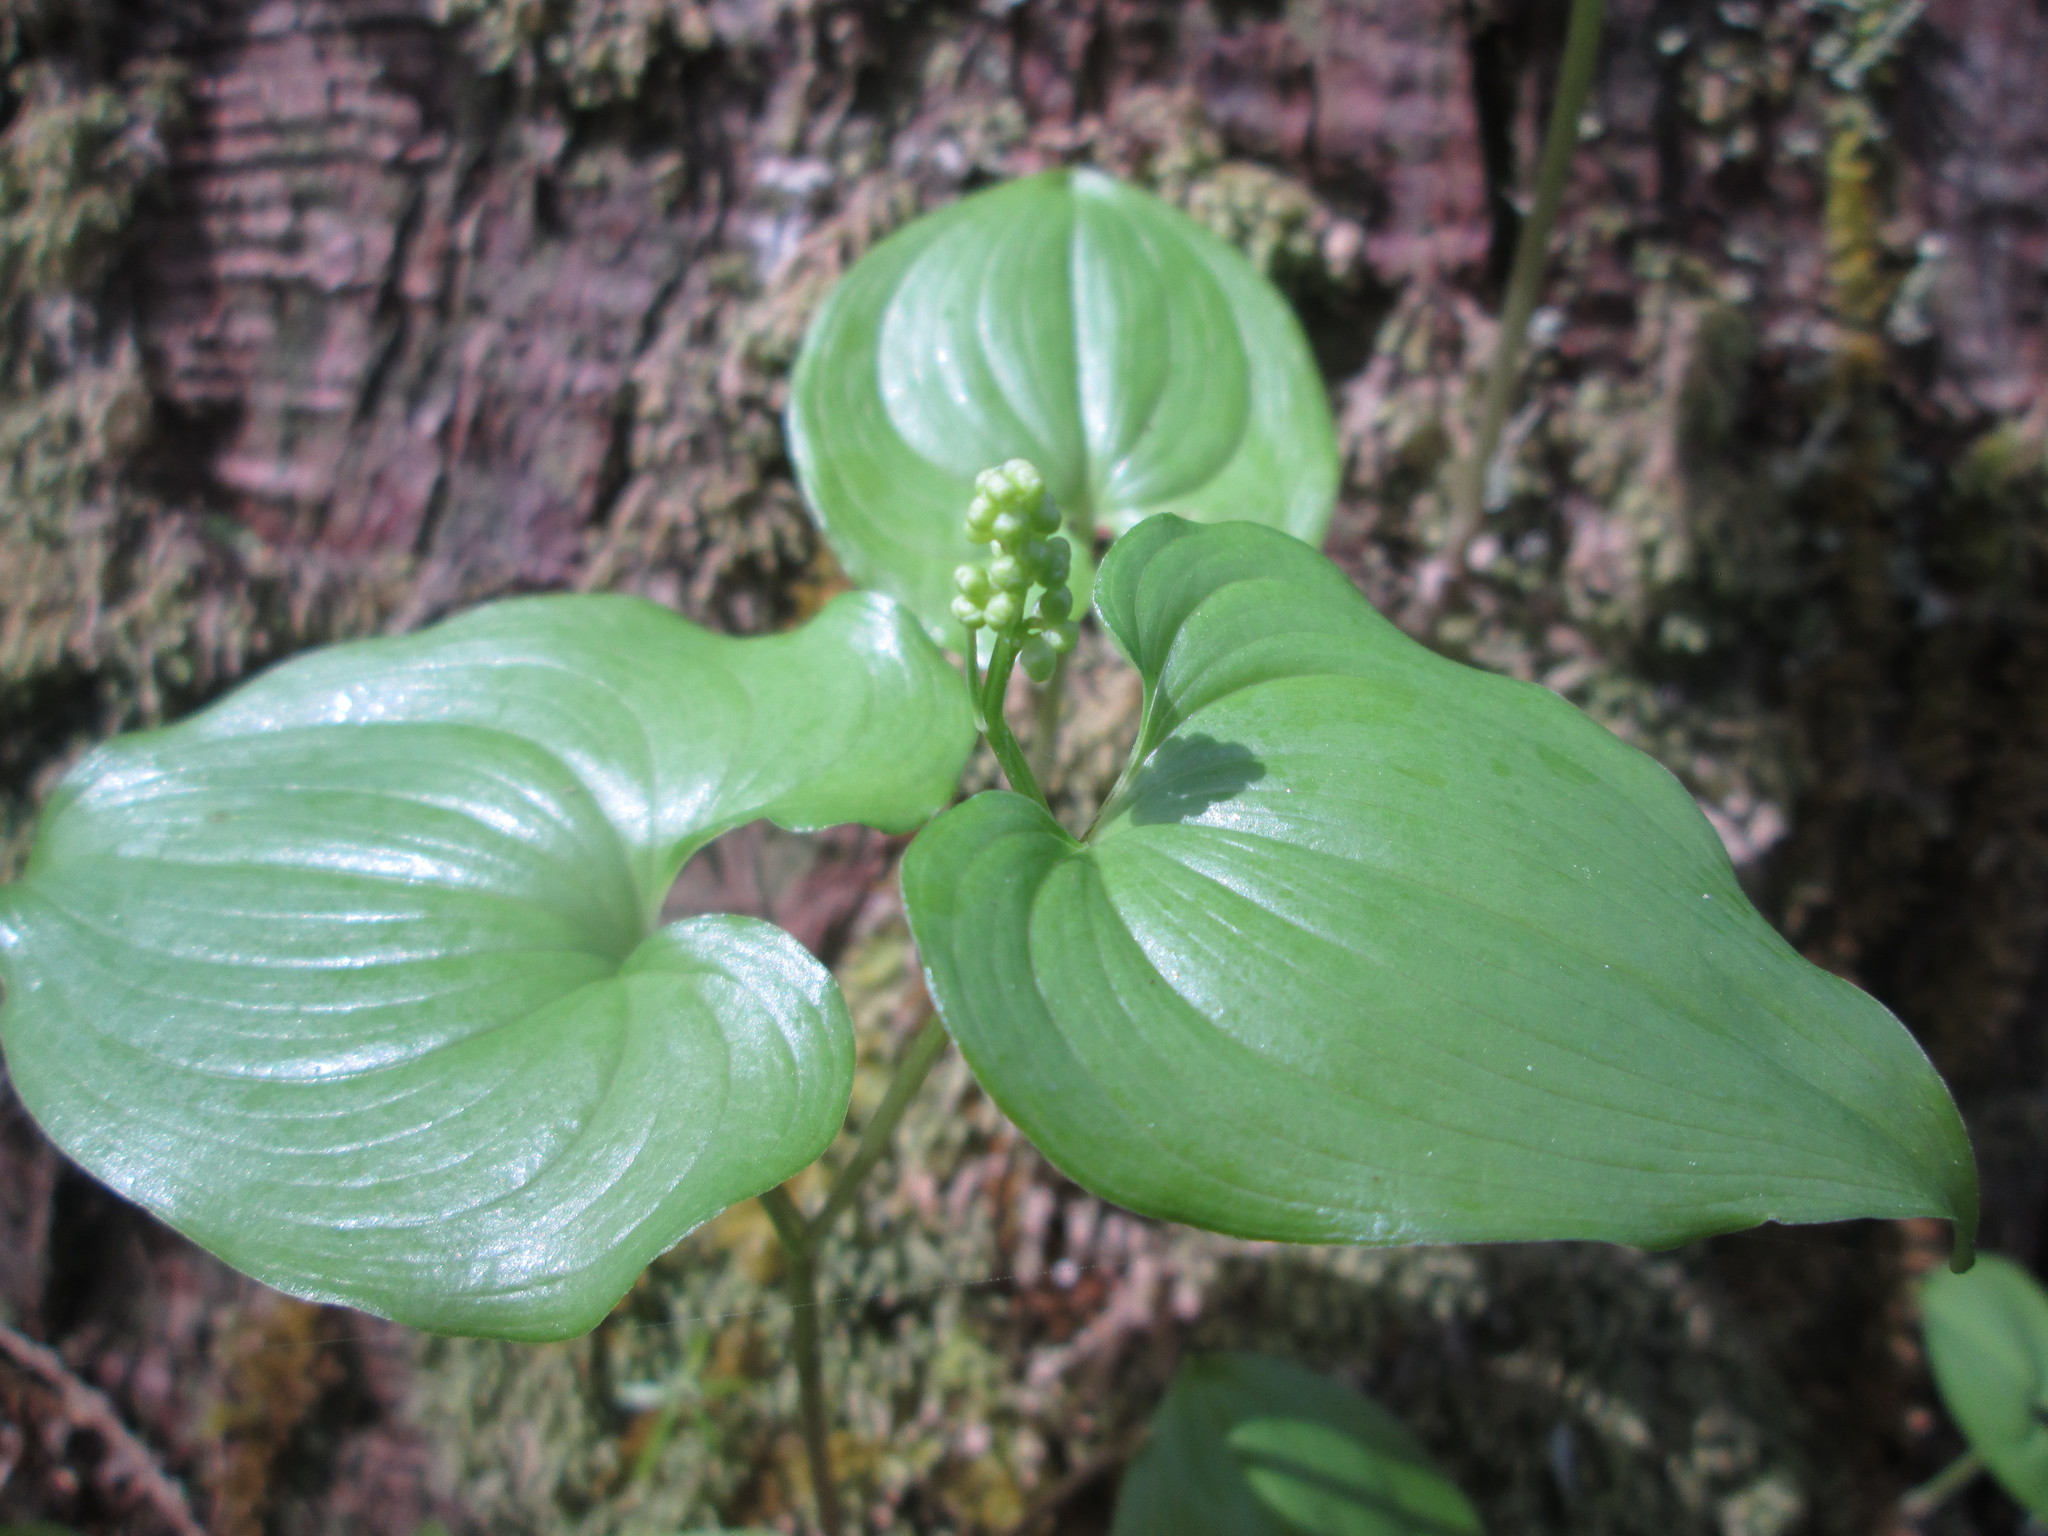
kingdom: Plantae
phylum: Tracheophyta
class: Liliopsida
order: Asparagales
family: Asparagaceae
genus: Maianthemum
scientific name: Maianthemum dilatatum
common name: False lily-of-the-valley
